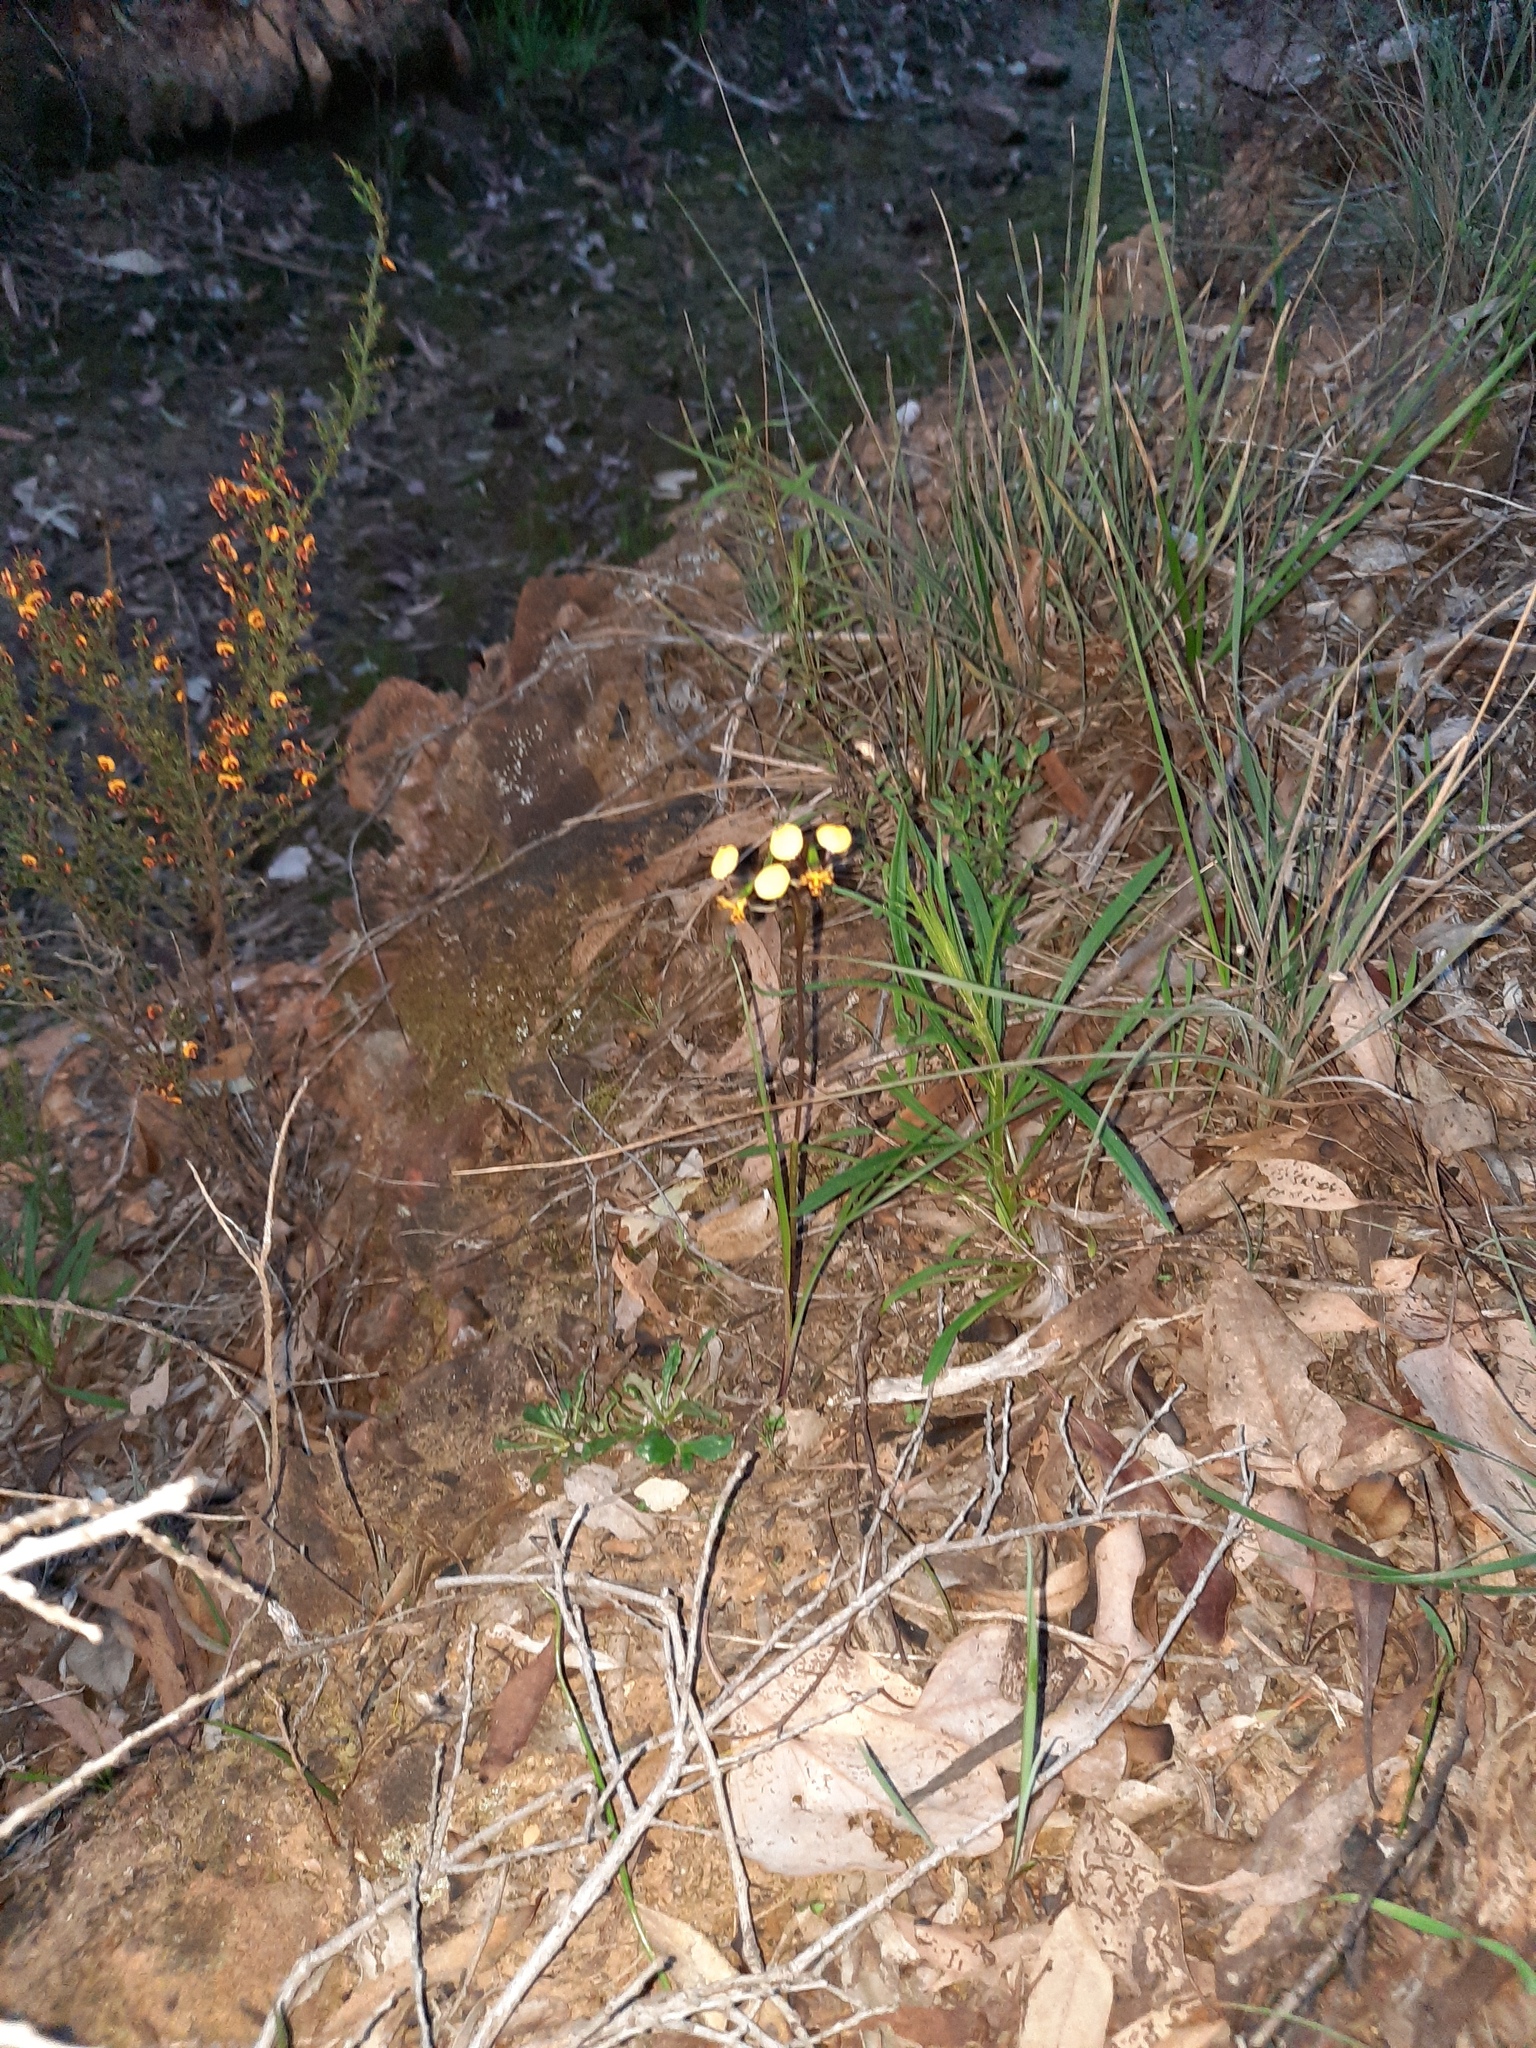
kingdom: Plantae
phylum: Tracheophyta
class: Liliopsida
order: Asparagales
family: Orchidaceae
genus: Diuris
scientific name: Diuris pardina
